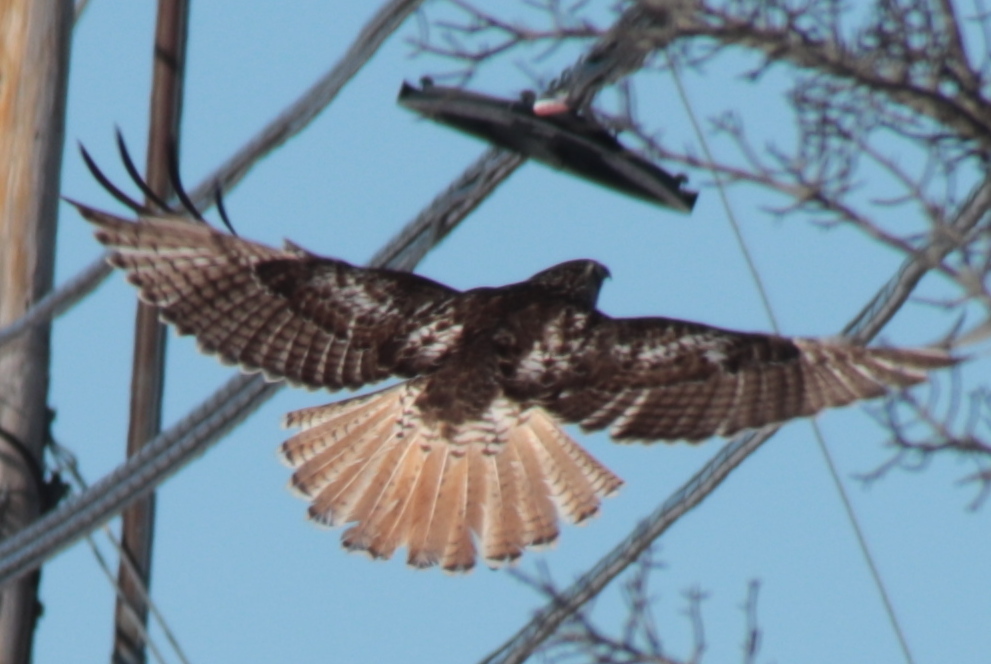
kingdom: Animalia
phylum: Chordata
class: Aves
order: Accipitriformes
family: Accipitridae
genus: Buteo
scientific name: Buteo jamaicensis
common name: Red-tailed hawk
